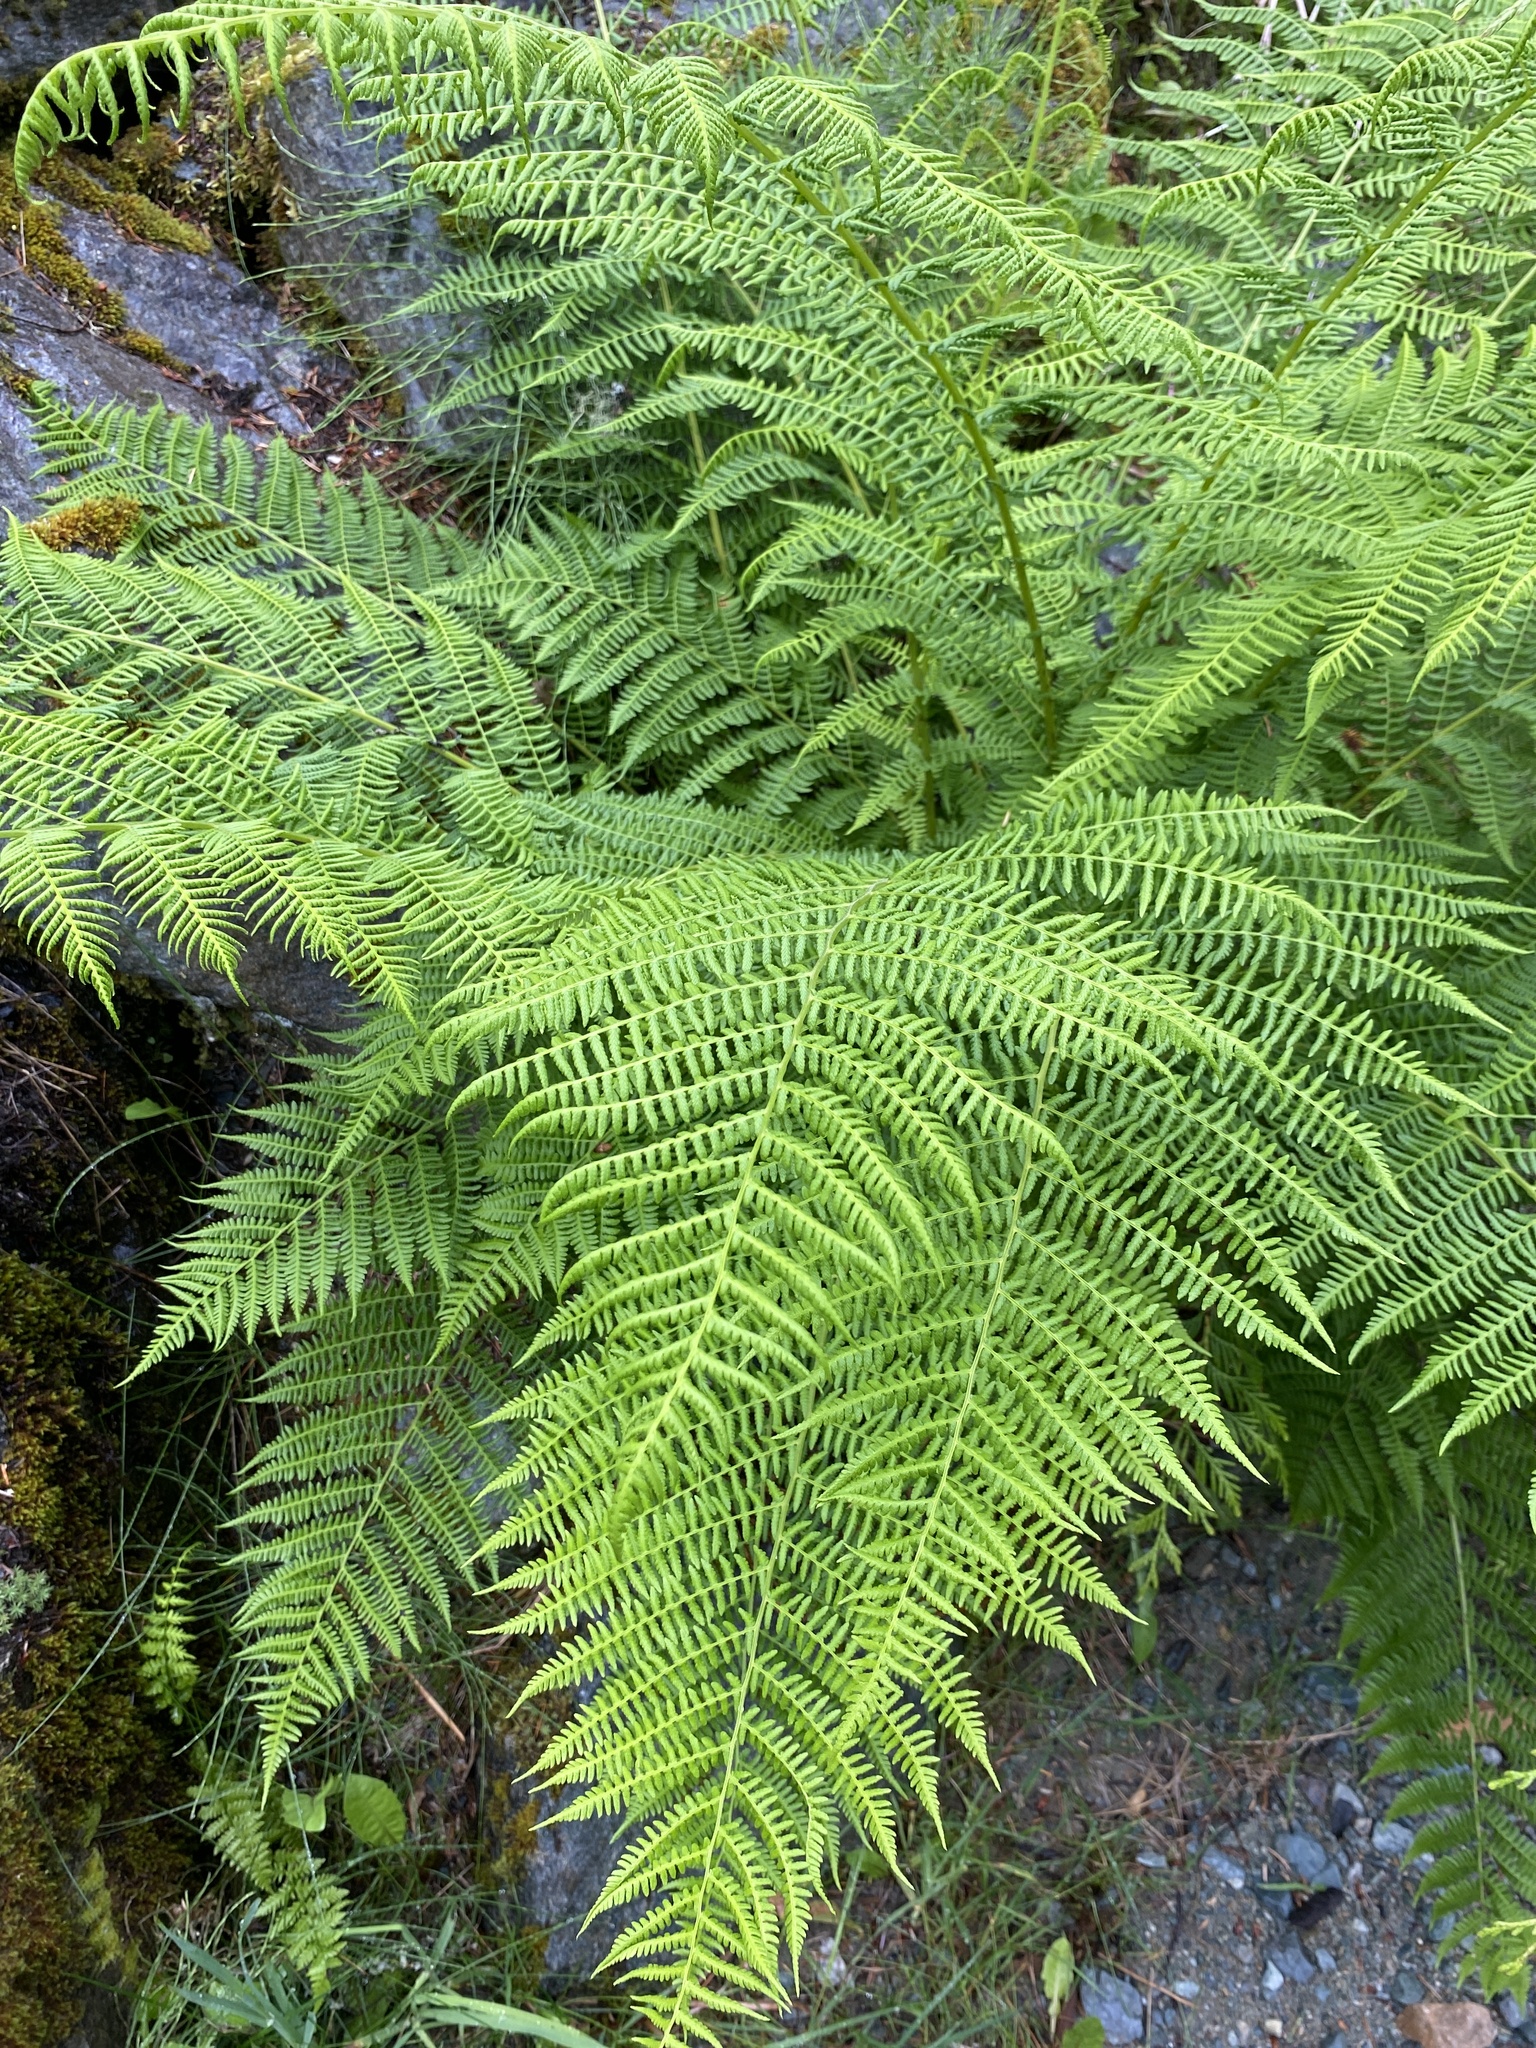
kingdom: Plantae
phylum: Tracheophyta
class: Polypodiopsida
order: Polypodiales
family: Athyriaceae
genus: Athyrium
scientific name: Athyrium cyclosorum
